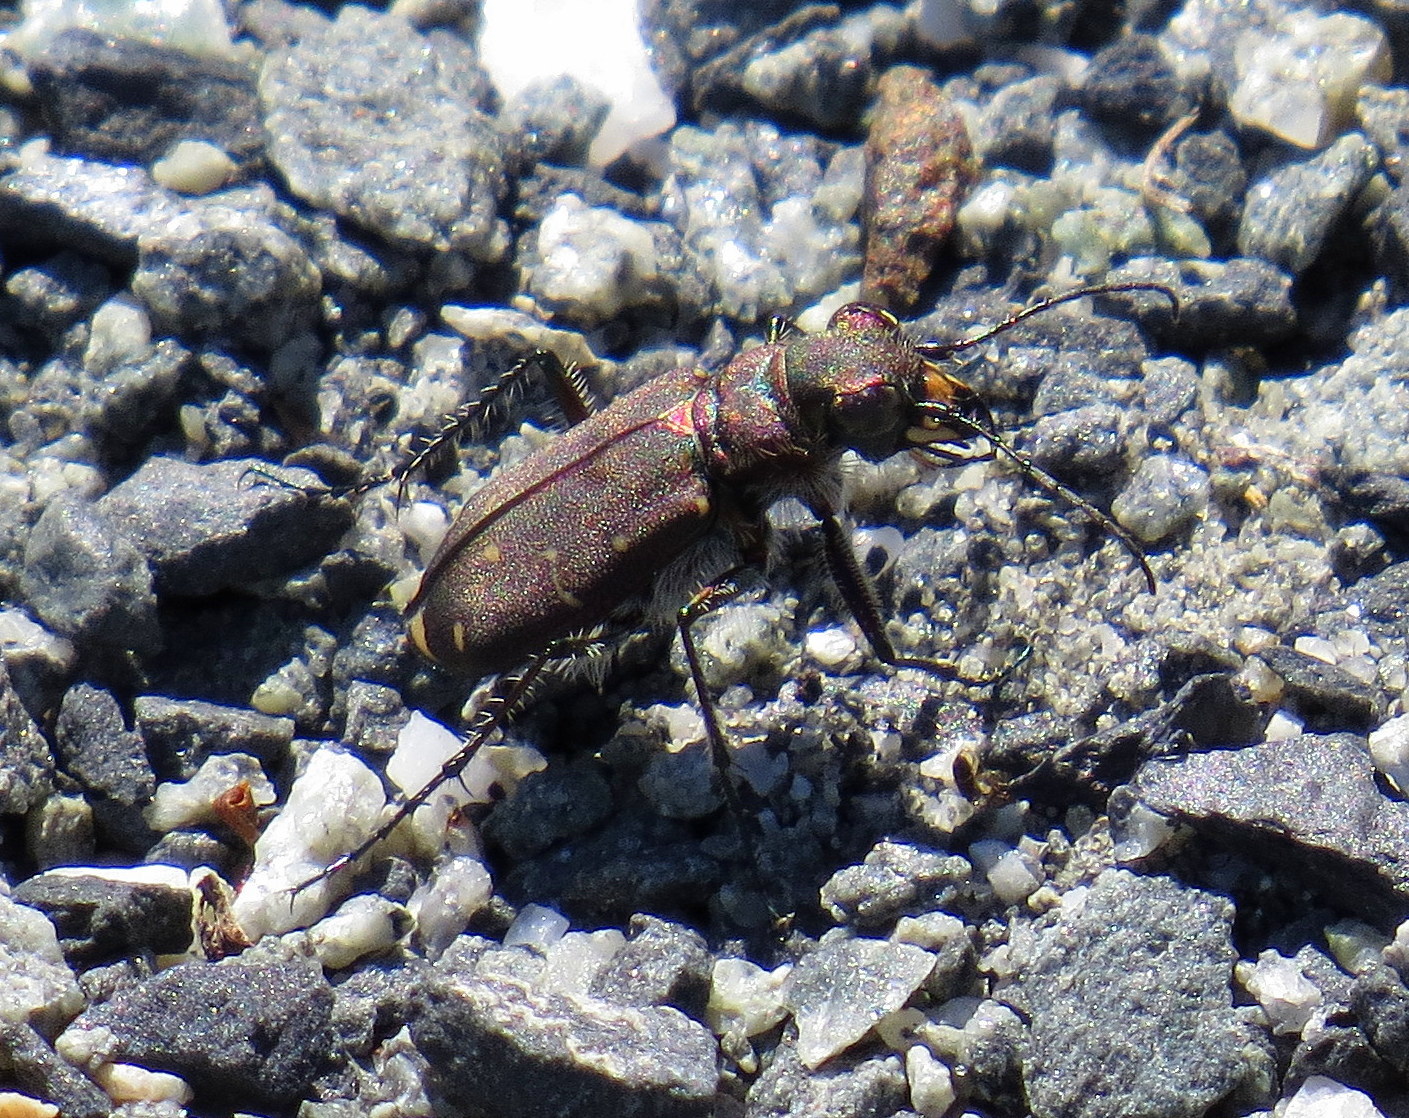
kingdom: Animalia
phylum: Arthropoda
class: Insecta
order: Coleoptera
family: Carabidae
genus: Cicindela
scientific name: Cicindela duodecimguttata
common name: Twelve-spotted tiger beetle
